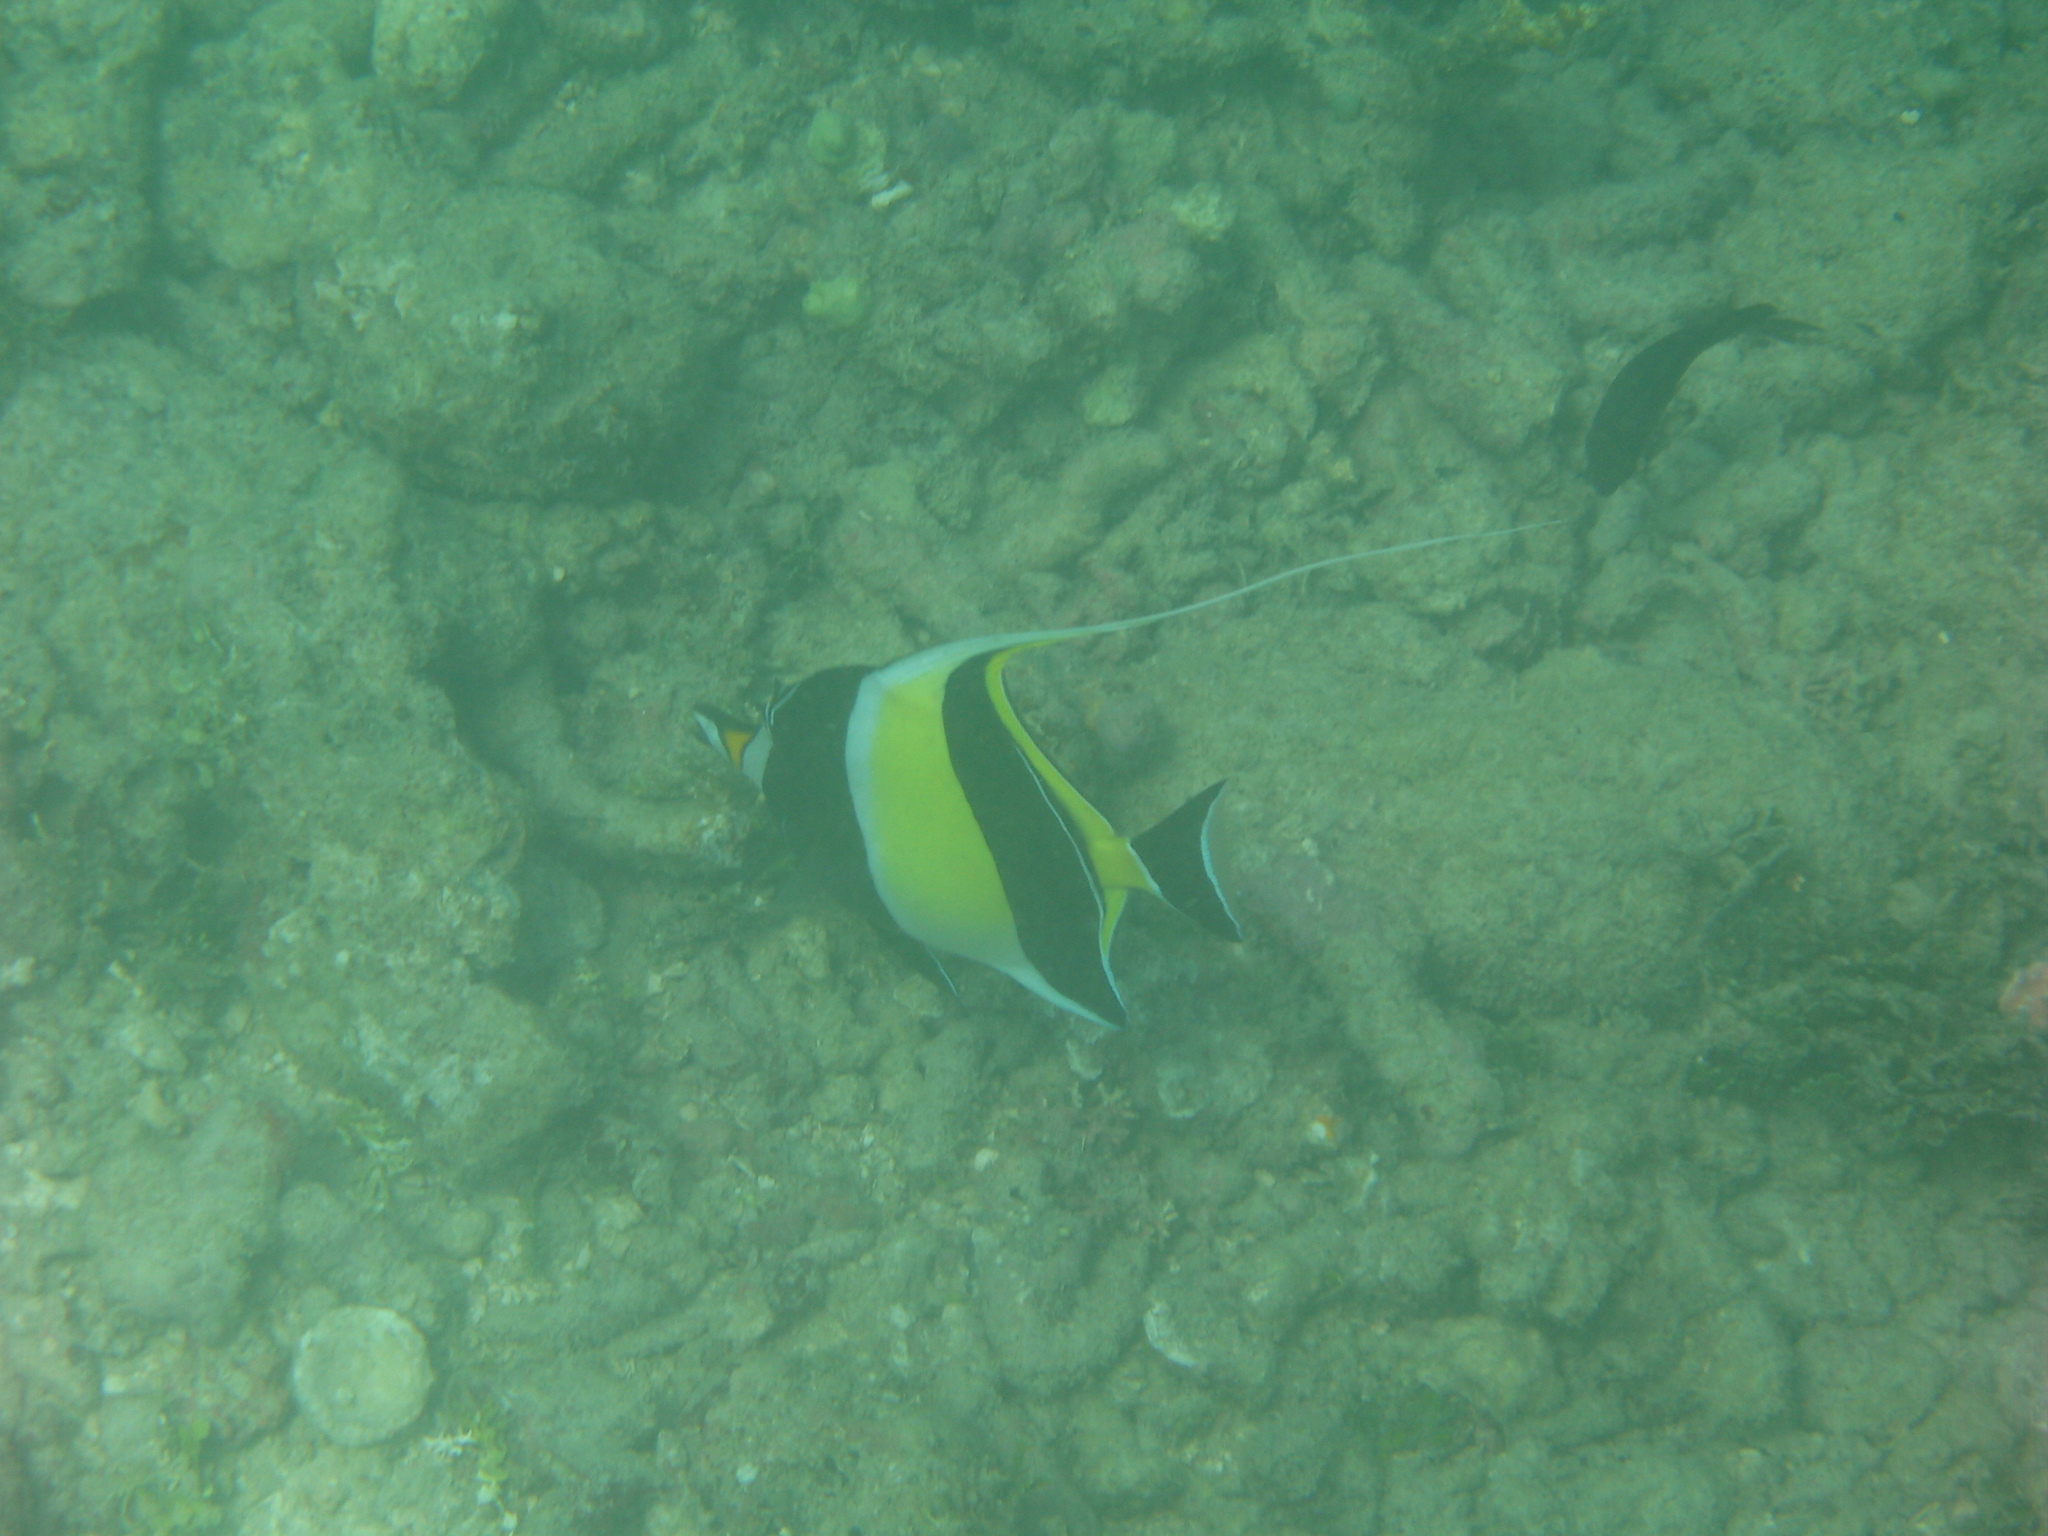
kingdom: Animalia
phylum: Chordata
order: Perciformes
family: Zanclidae
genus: Zanclus
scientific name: Zanclus cornutus
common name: Moorish idol
